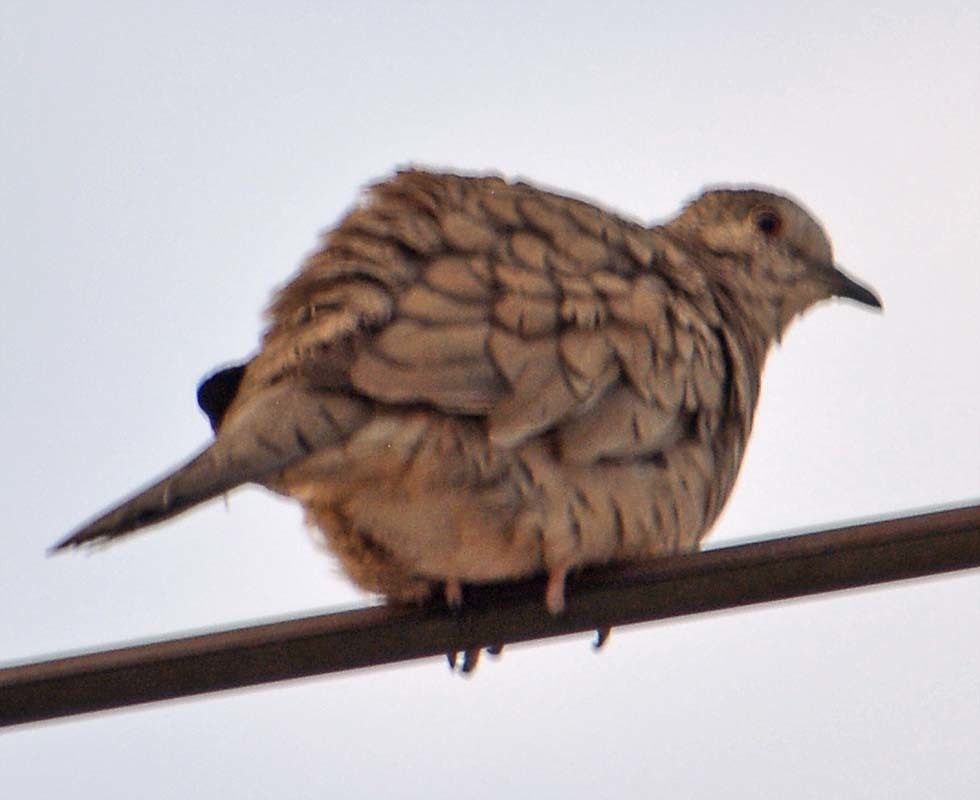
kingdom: Animalia
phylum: Chordata
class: Aves
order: Columbiformes
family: Columbidae
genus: Columbina
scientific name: Columbina inca
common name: Inca dove
